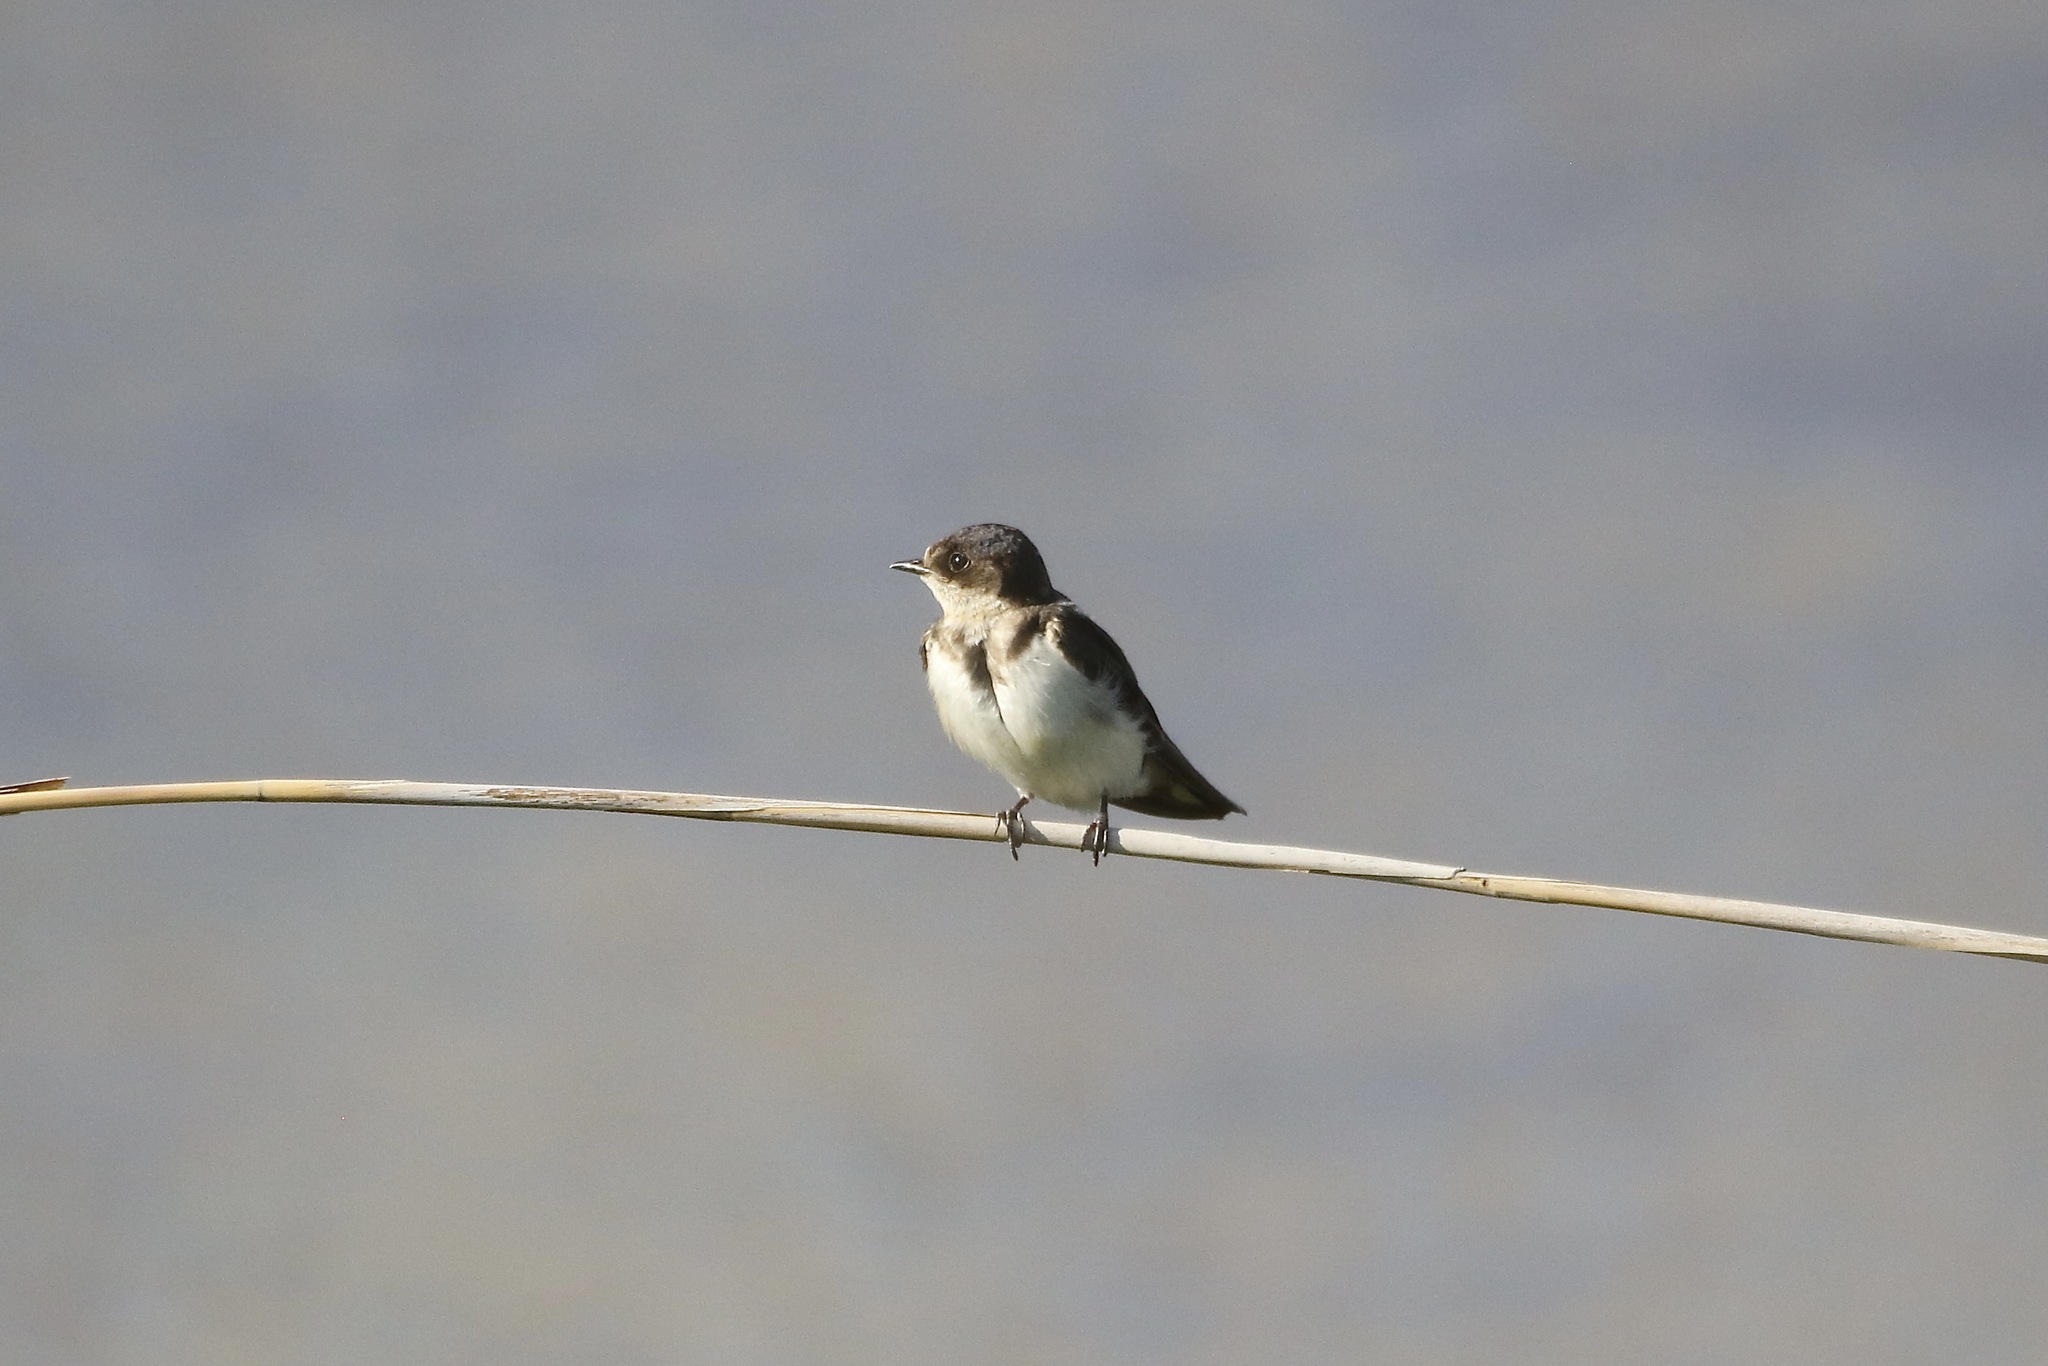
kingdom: Animalia
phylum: Chordata
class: Aves
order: Passeriformes
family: Hirundinidae
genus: Riparia
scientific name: Riparia riparia
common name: Sand martin
